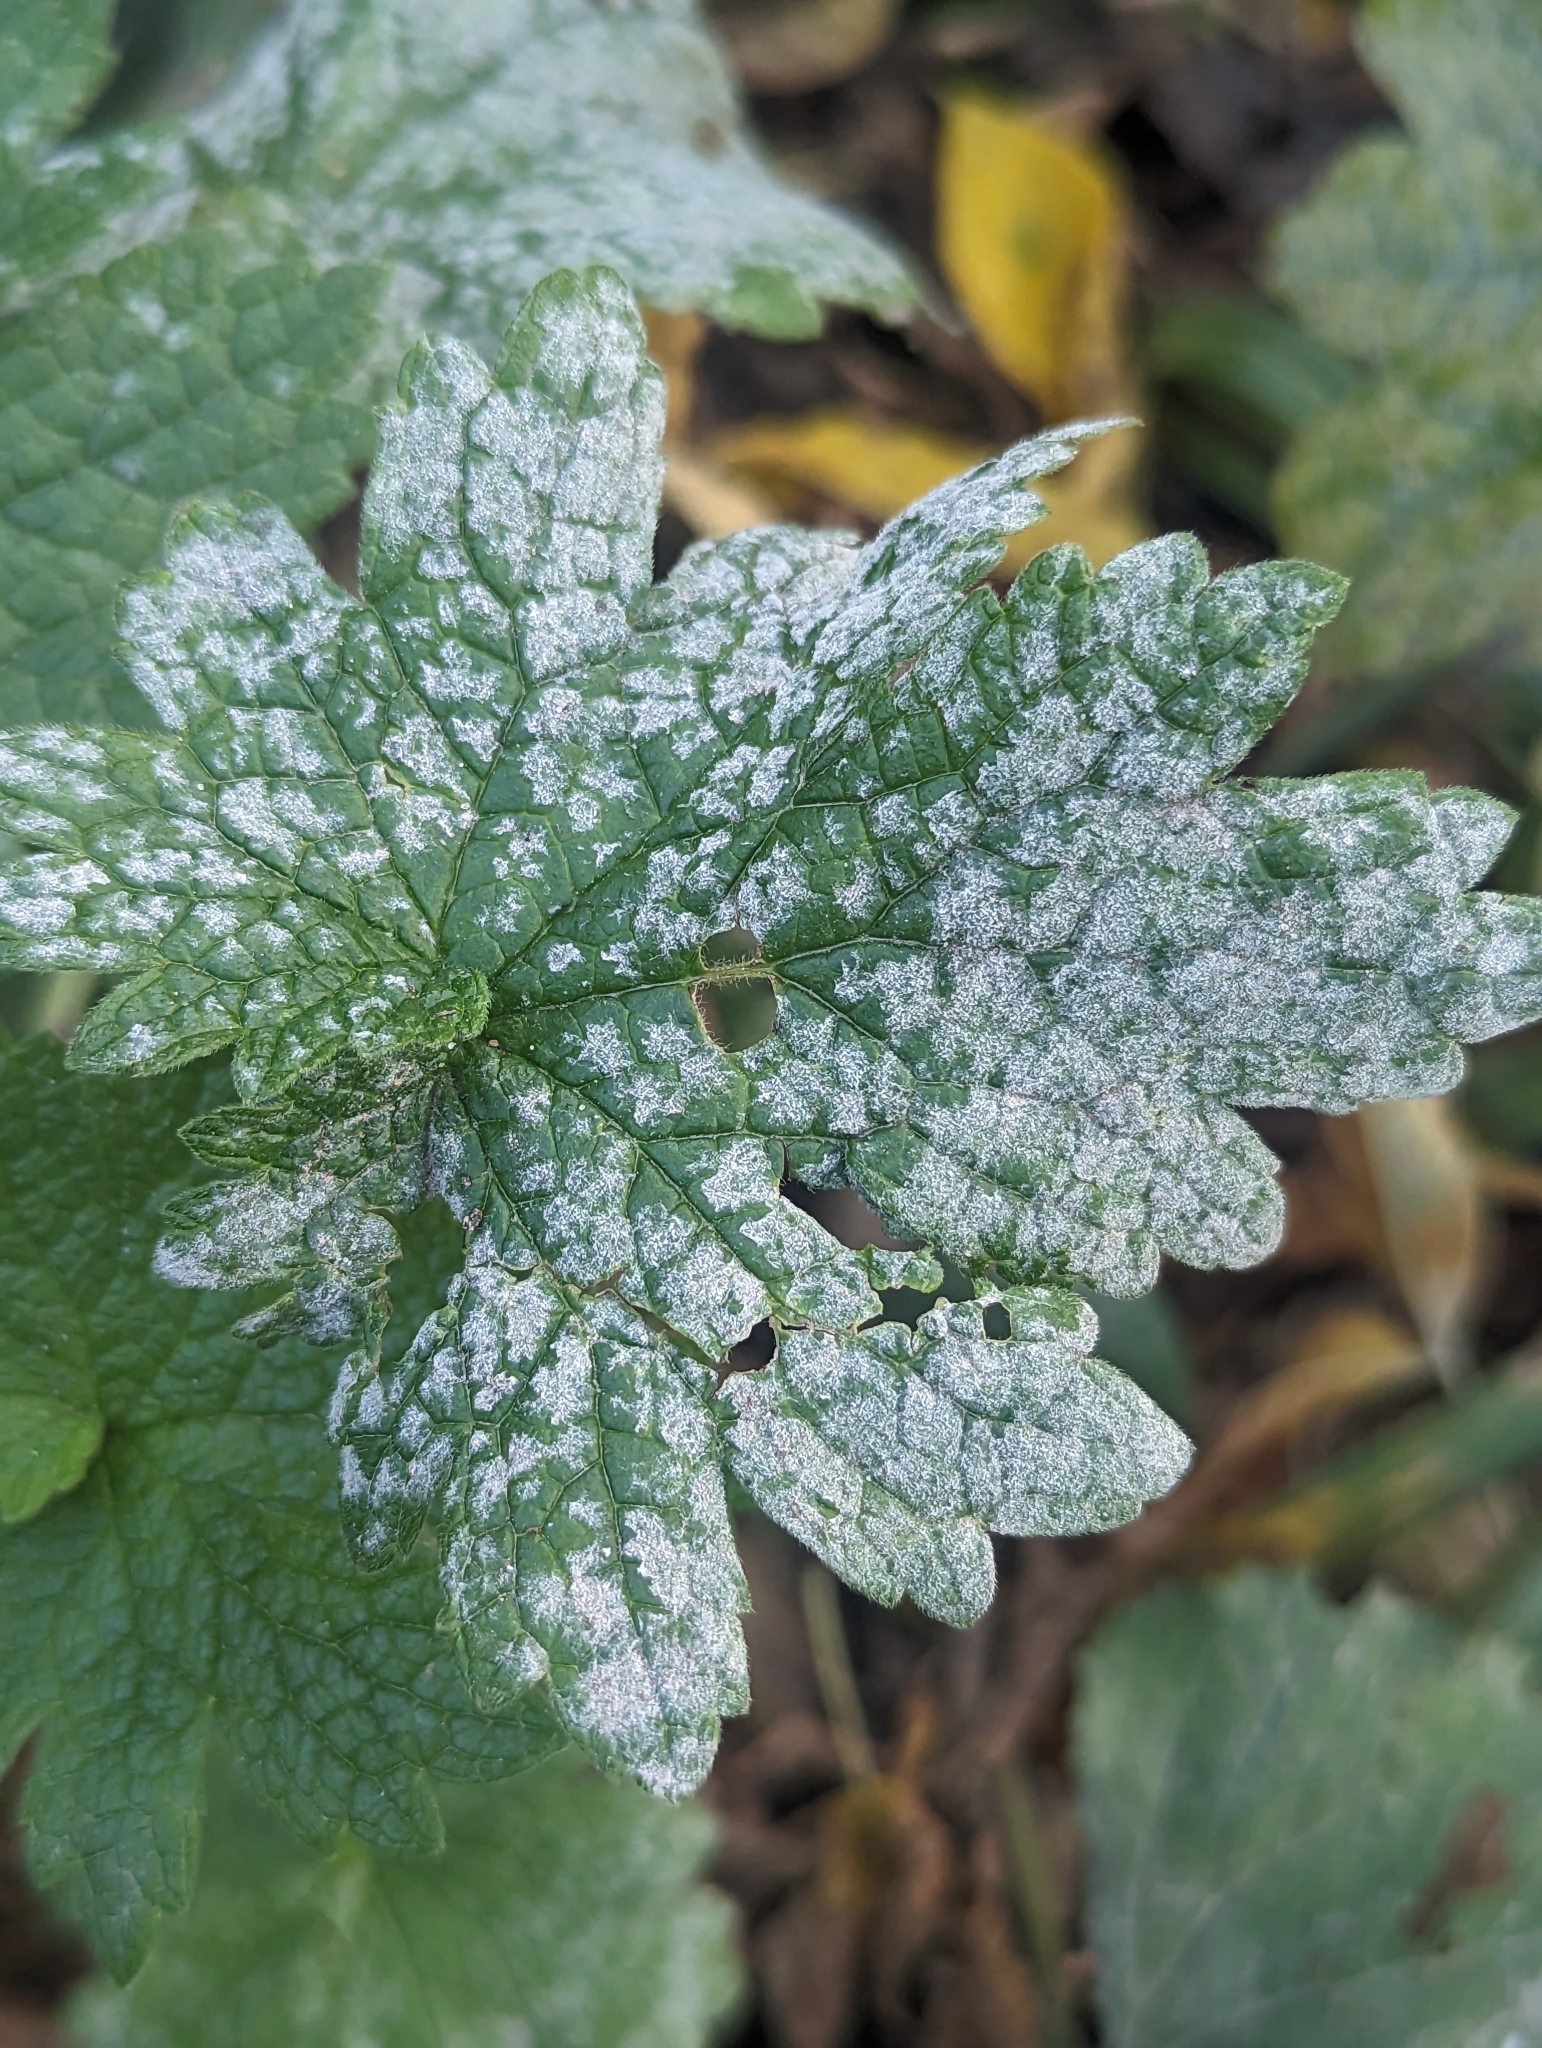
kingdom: Fungi
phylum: Ascomycota
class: Leotiomycetes
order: Helotiales
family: Erysiphaceae
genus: Neoerysiphe
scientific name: Neoerysiphe galeopsidis
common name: Mint mildew
